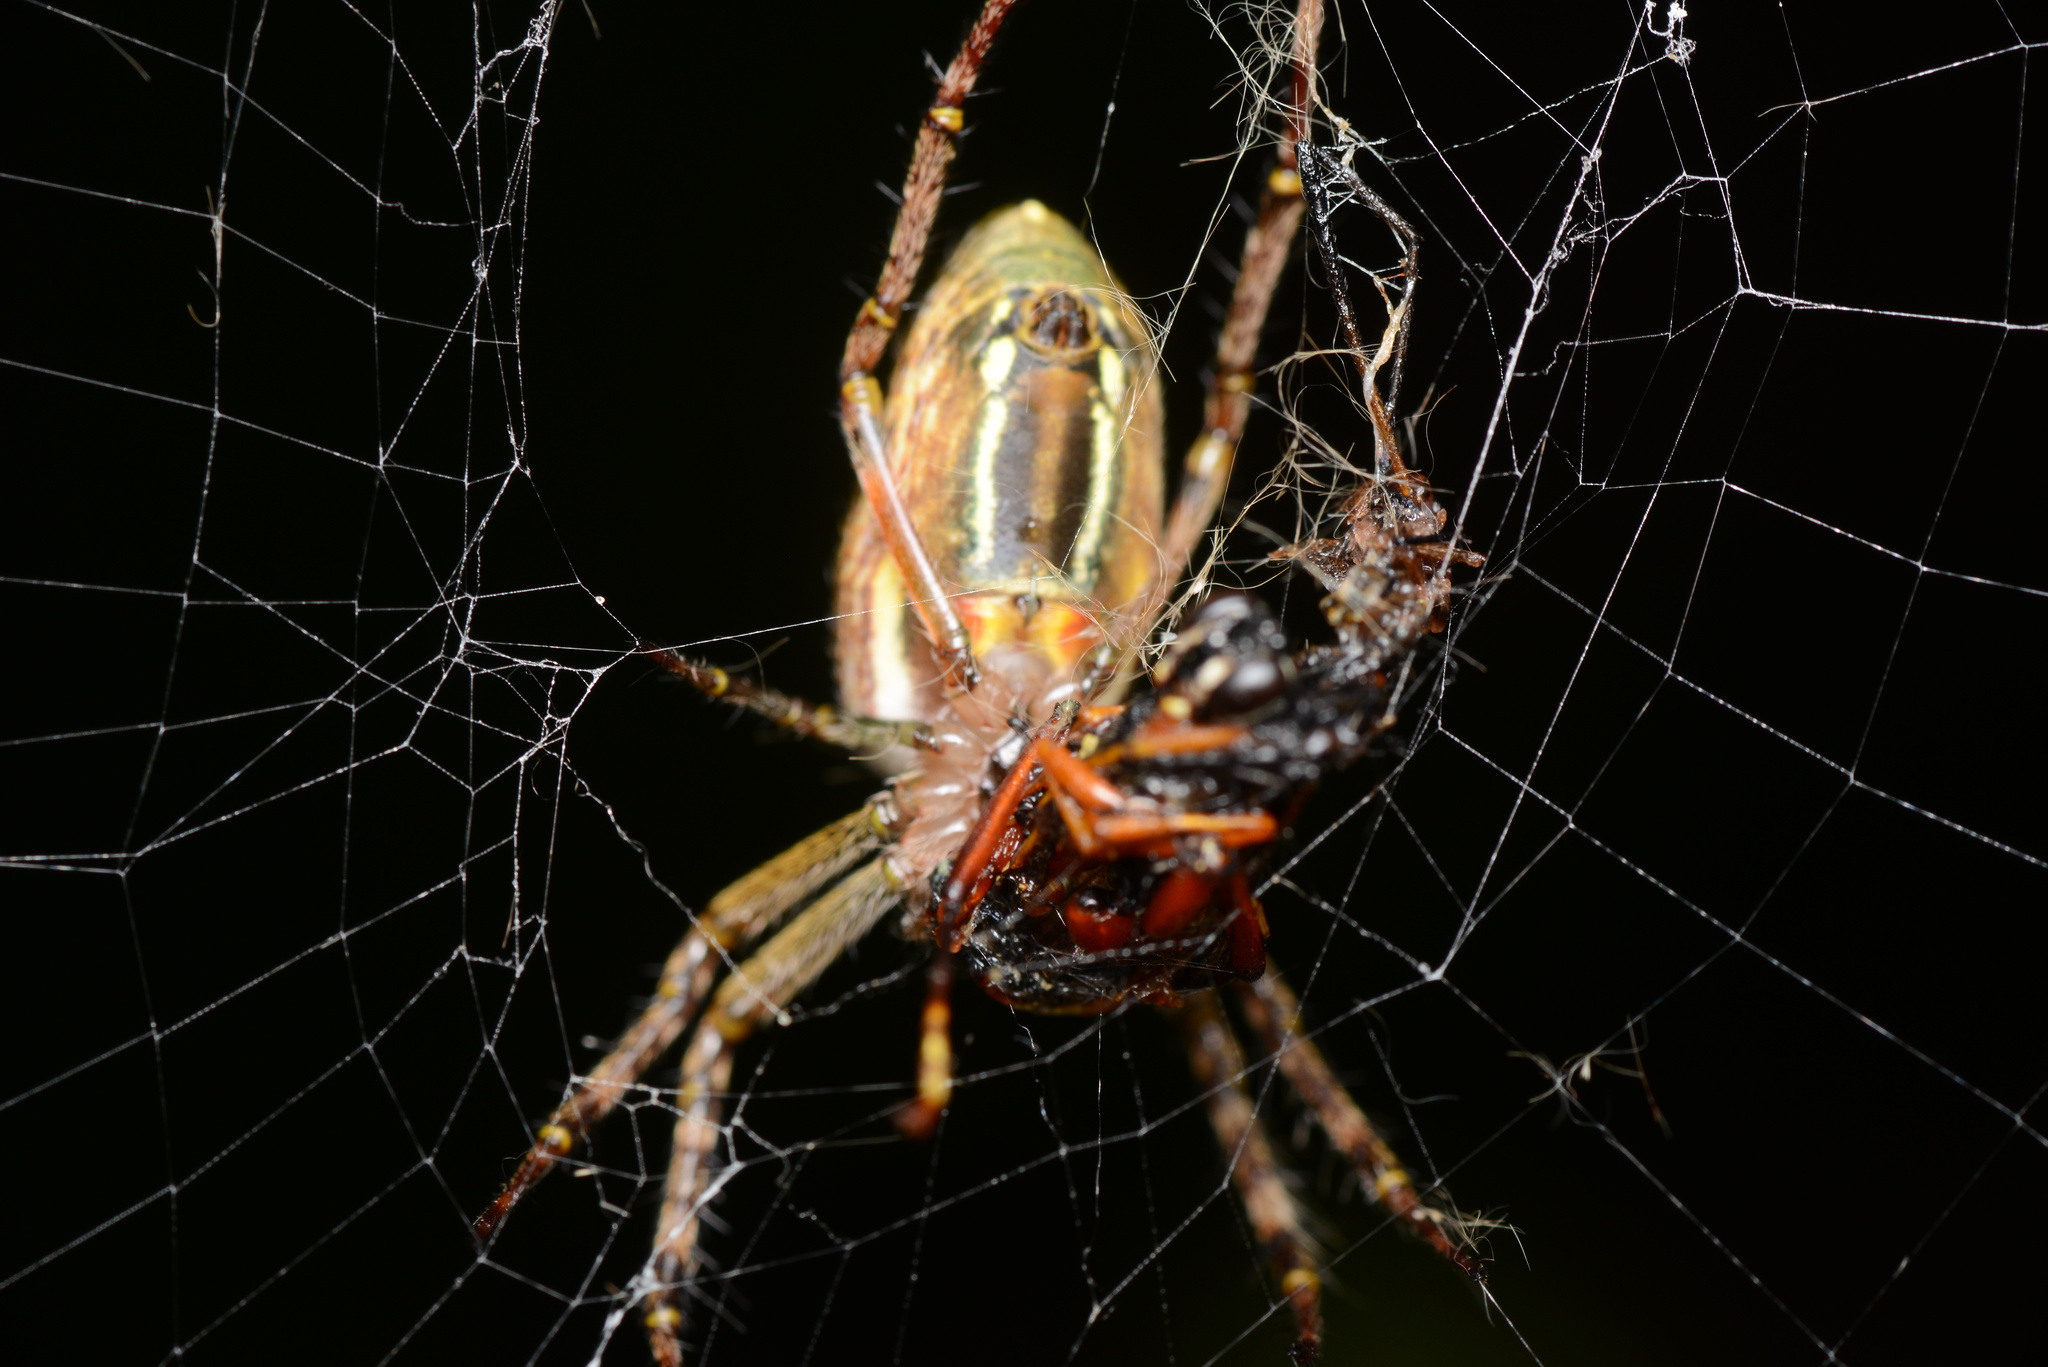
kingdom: Animalia
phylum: Arthropoda
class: Arachnida
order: Araneae
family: Araneidae
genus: Plebs
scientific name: Plebs bradleyi
